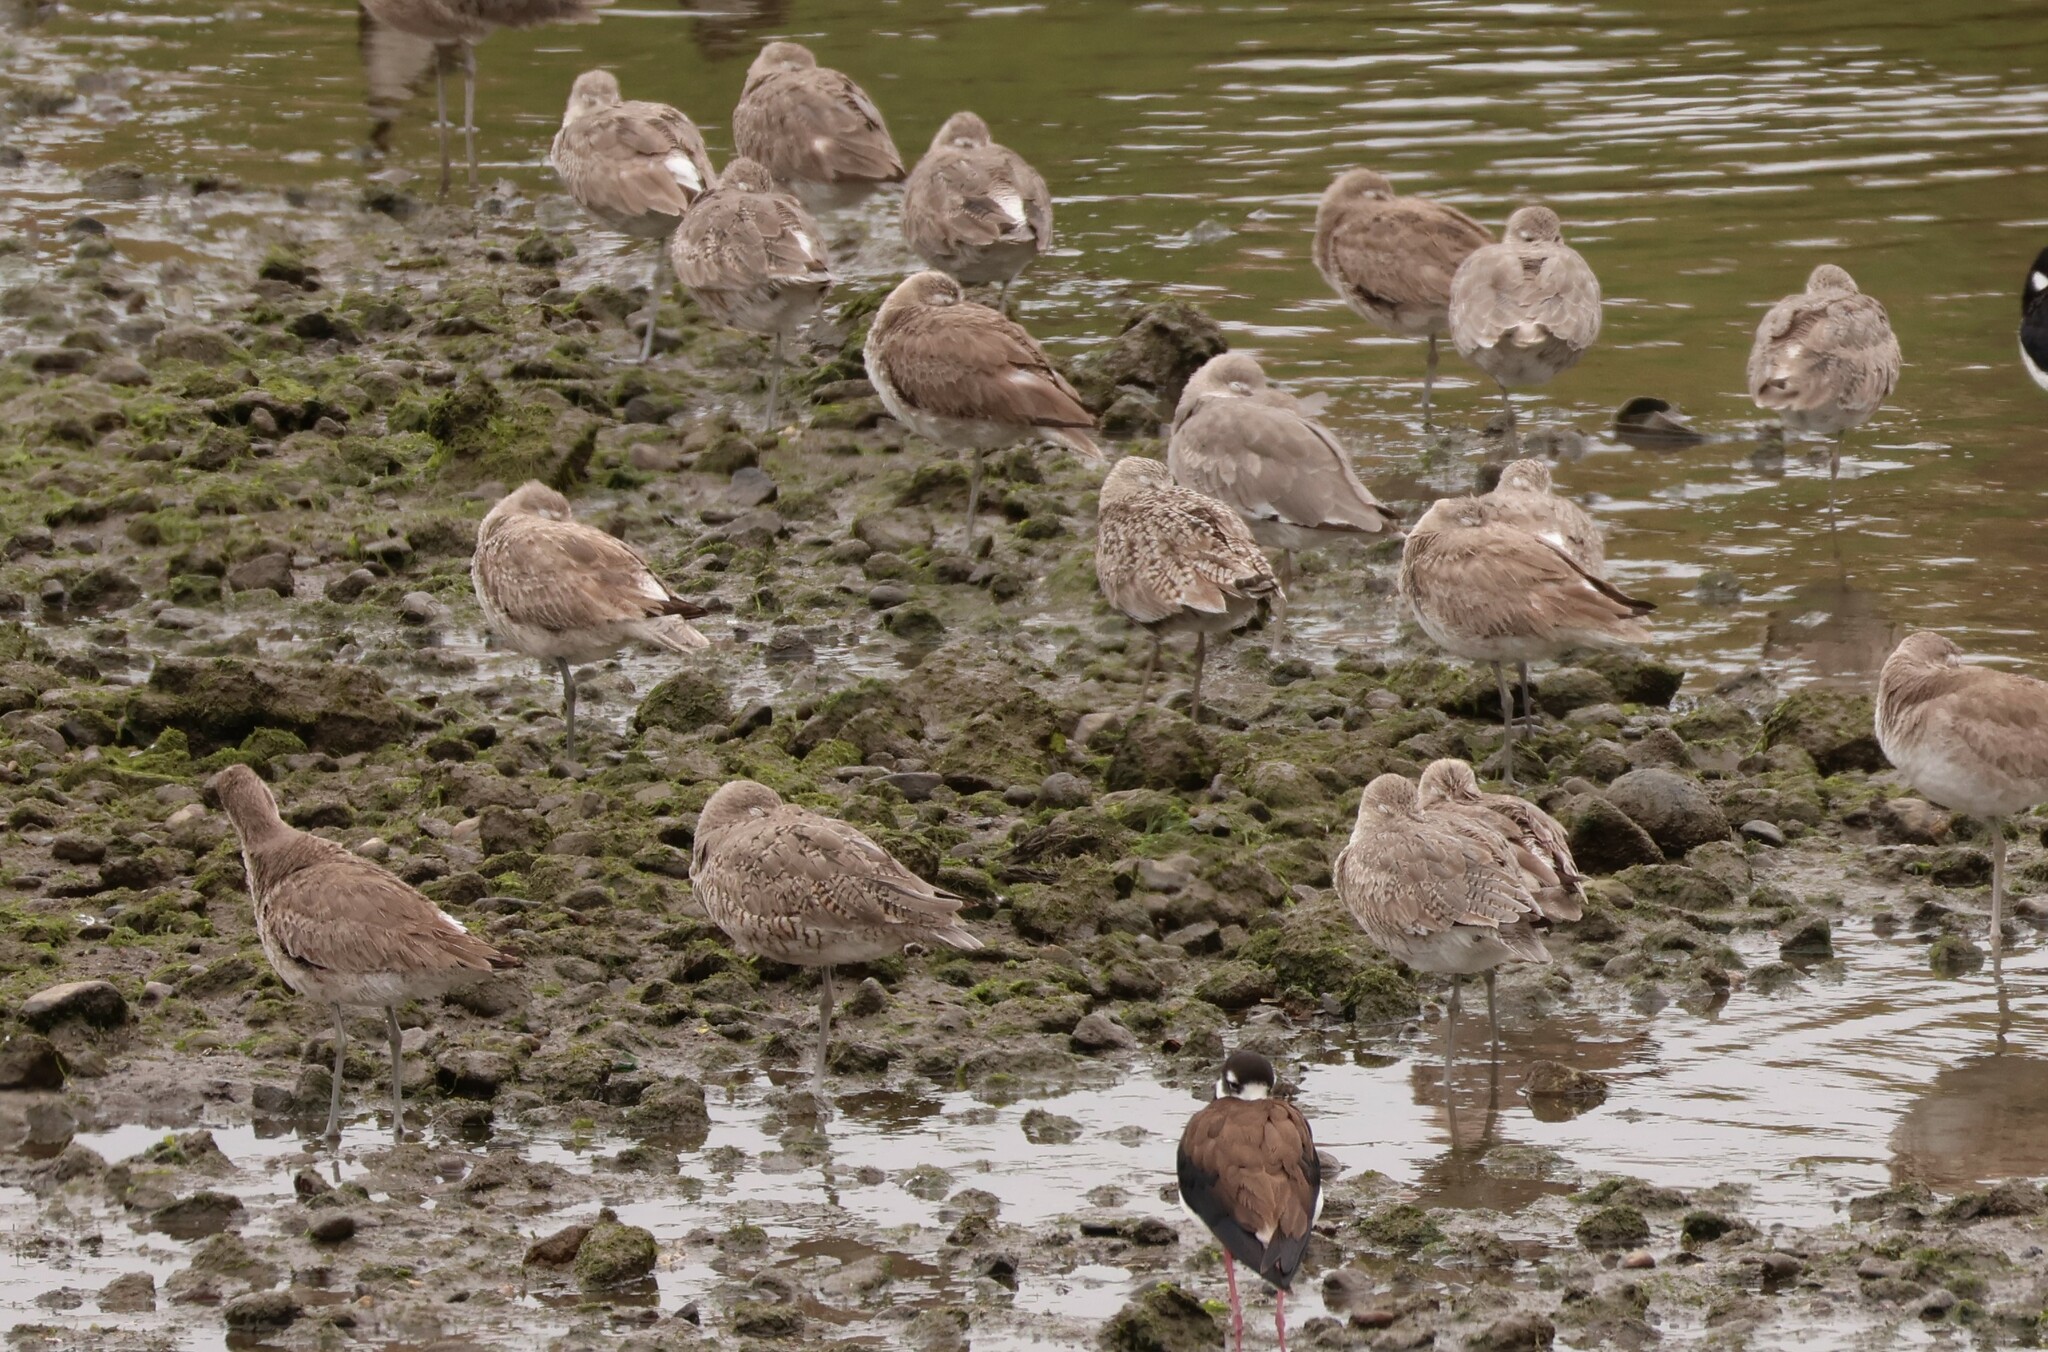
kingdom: Animalia
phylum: Chordata
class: Aves
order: Charadriiformes
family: Scolopacidae
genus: Tringa
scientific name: Tringa semipalmata
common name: Willet
